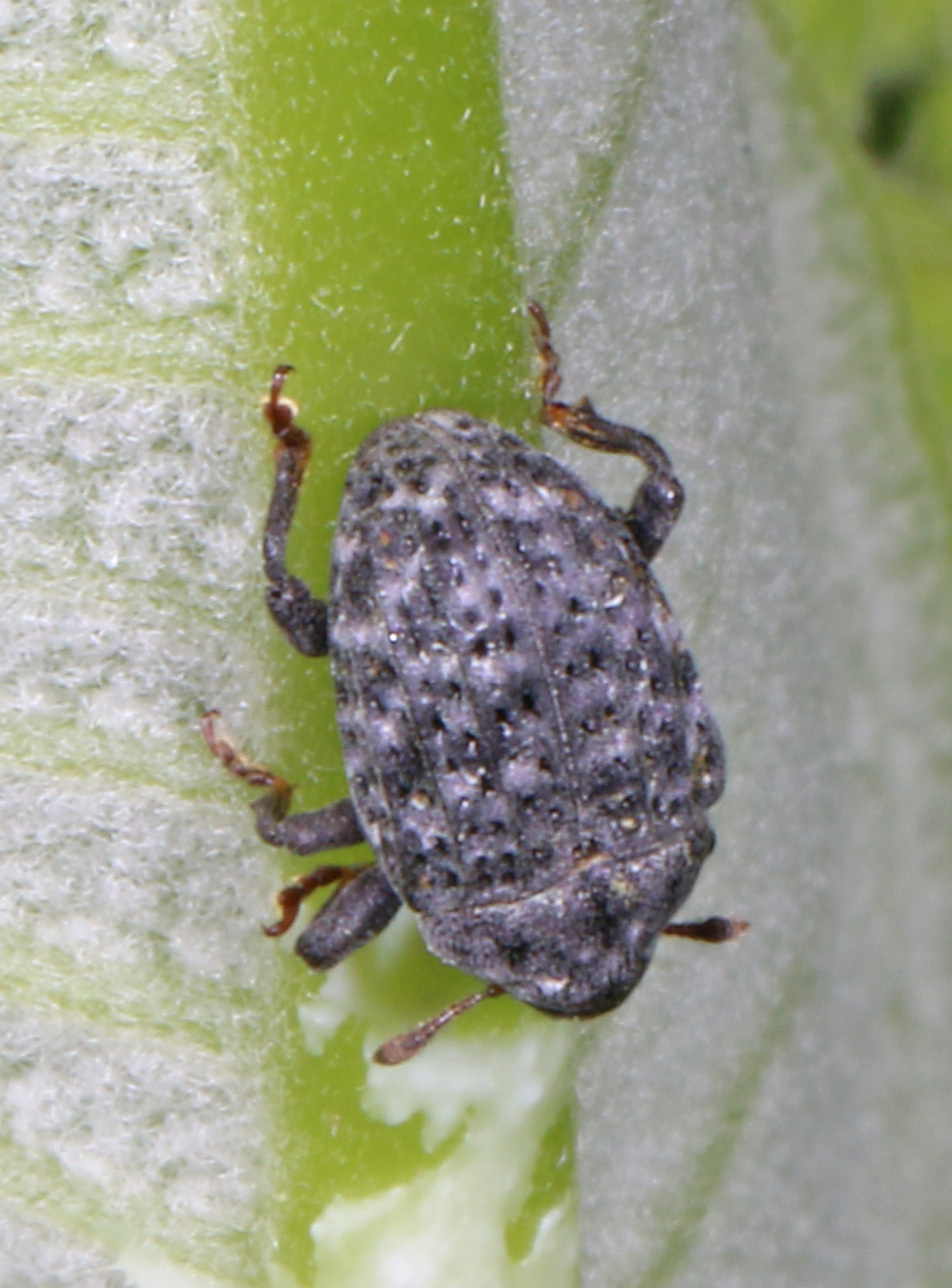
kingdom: Animalia
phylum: Arthropoda
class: Insecta
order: Coleoptera
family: Curculionidae
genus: Rhyssomatus
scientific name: Rhyssomatus lineaticollis
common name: Milkweed stem weevil
